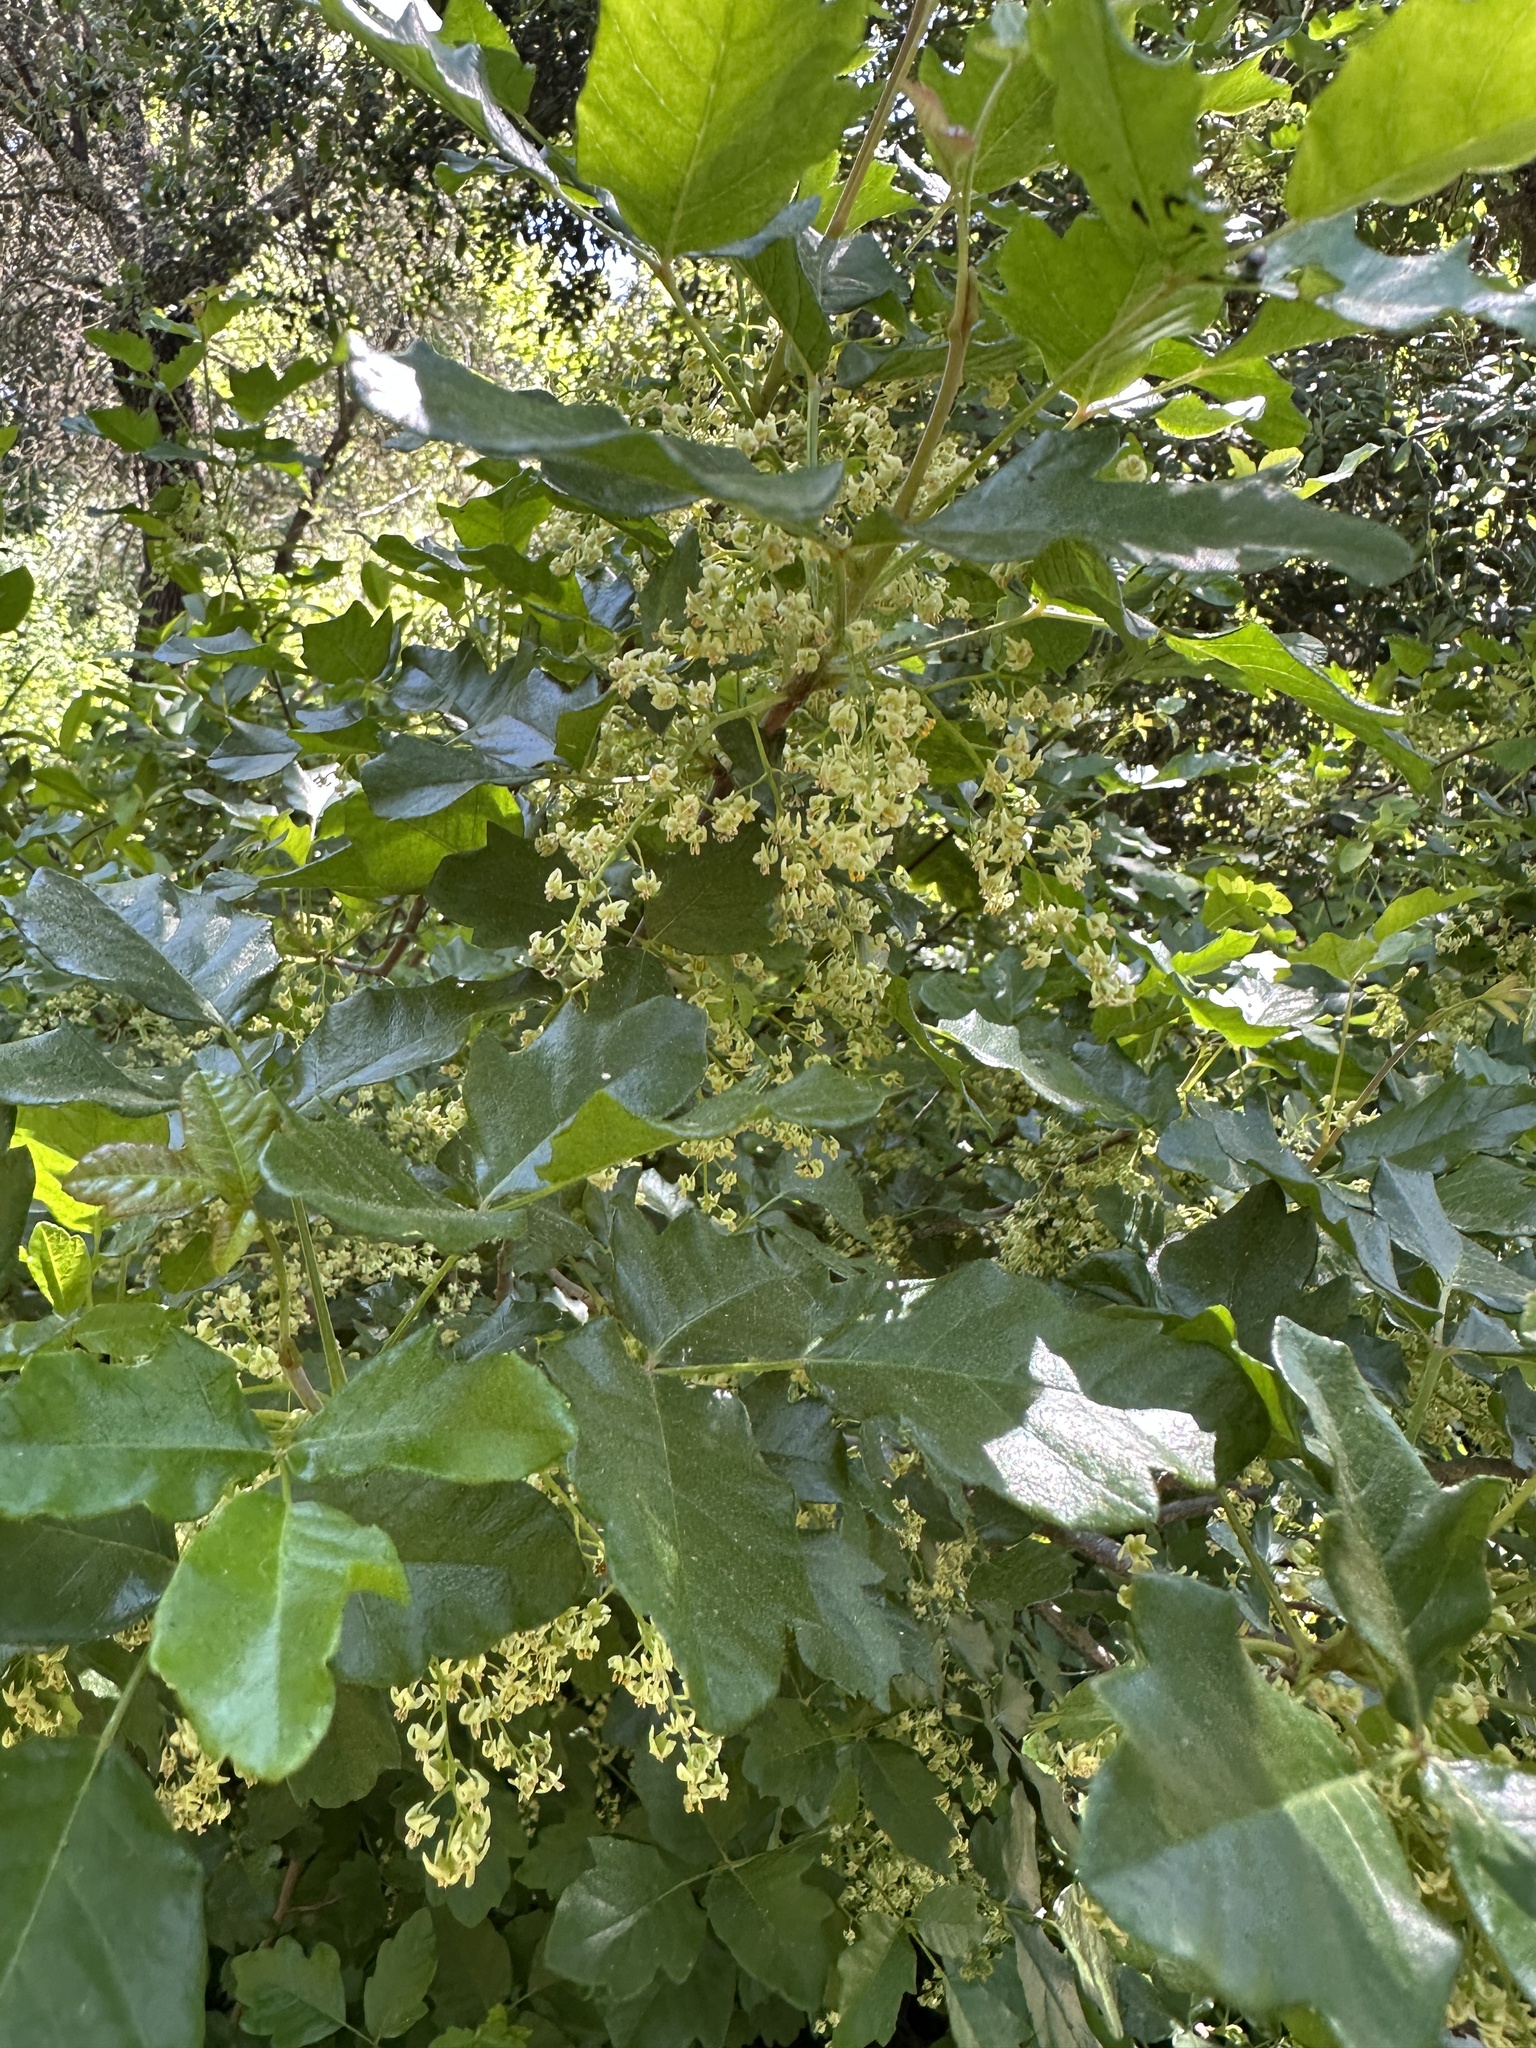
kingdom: Plantae
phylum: Tracheophyta
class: Magnoliopsida
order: Sapindales
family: Anacardiaceae
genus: Toxicodendron
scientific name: Toxicodendron diversilobum
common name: Pacific poison-oak
